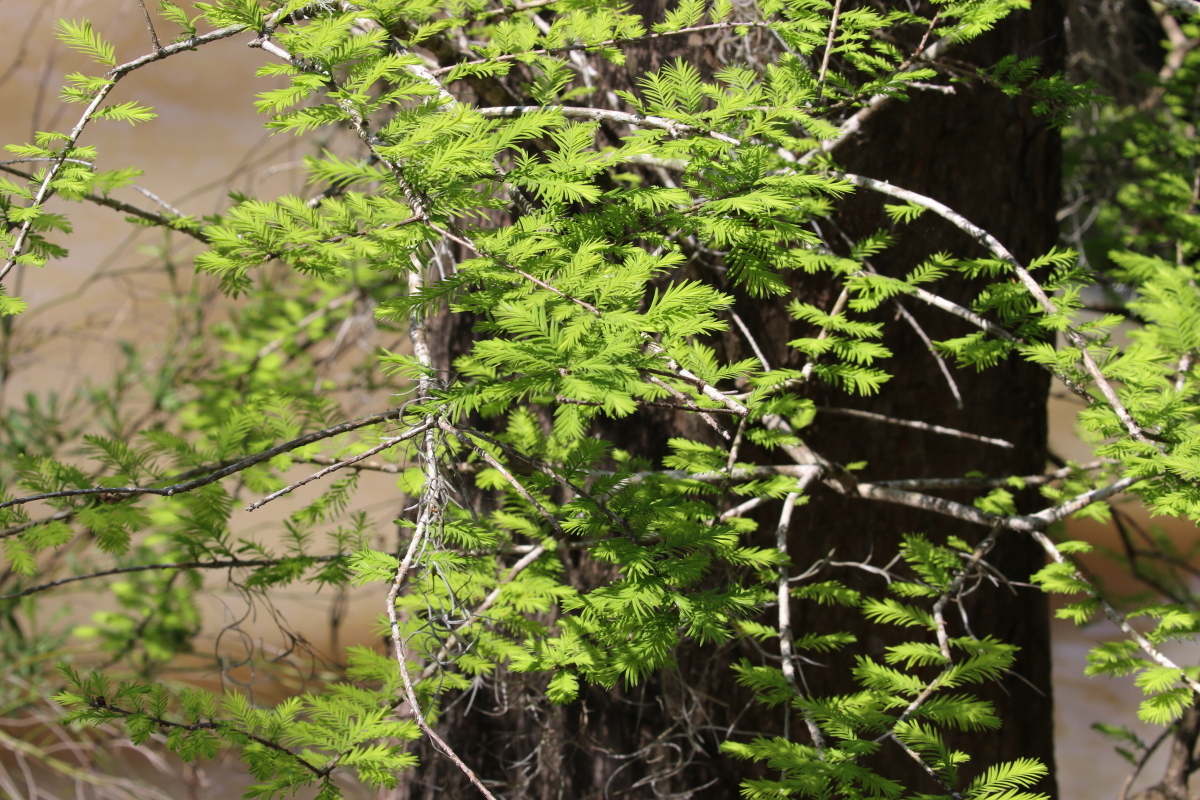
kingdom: Plantae
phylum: Tracheophyta
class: Pinopsida
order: Pinales
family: Cupressaceae
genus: Taxodium
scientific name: Taxodium distichum
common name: Bald cypress
